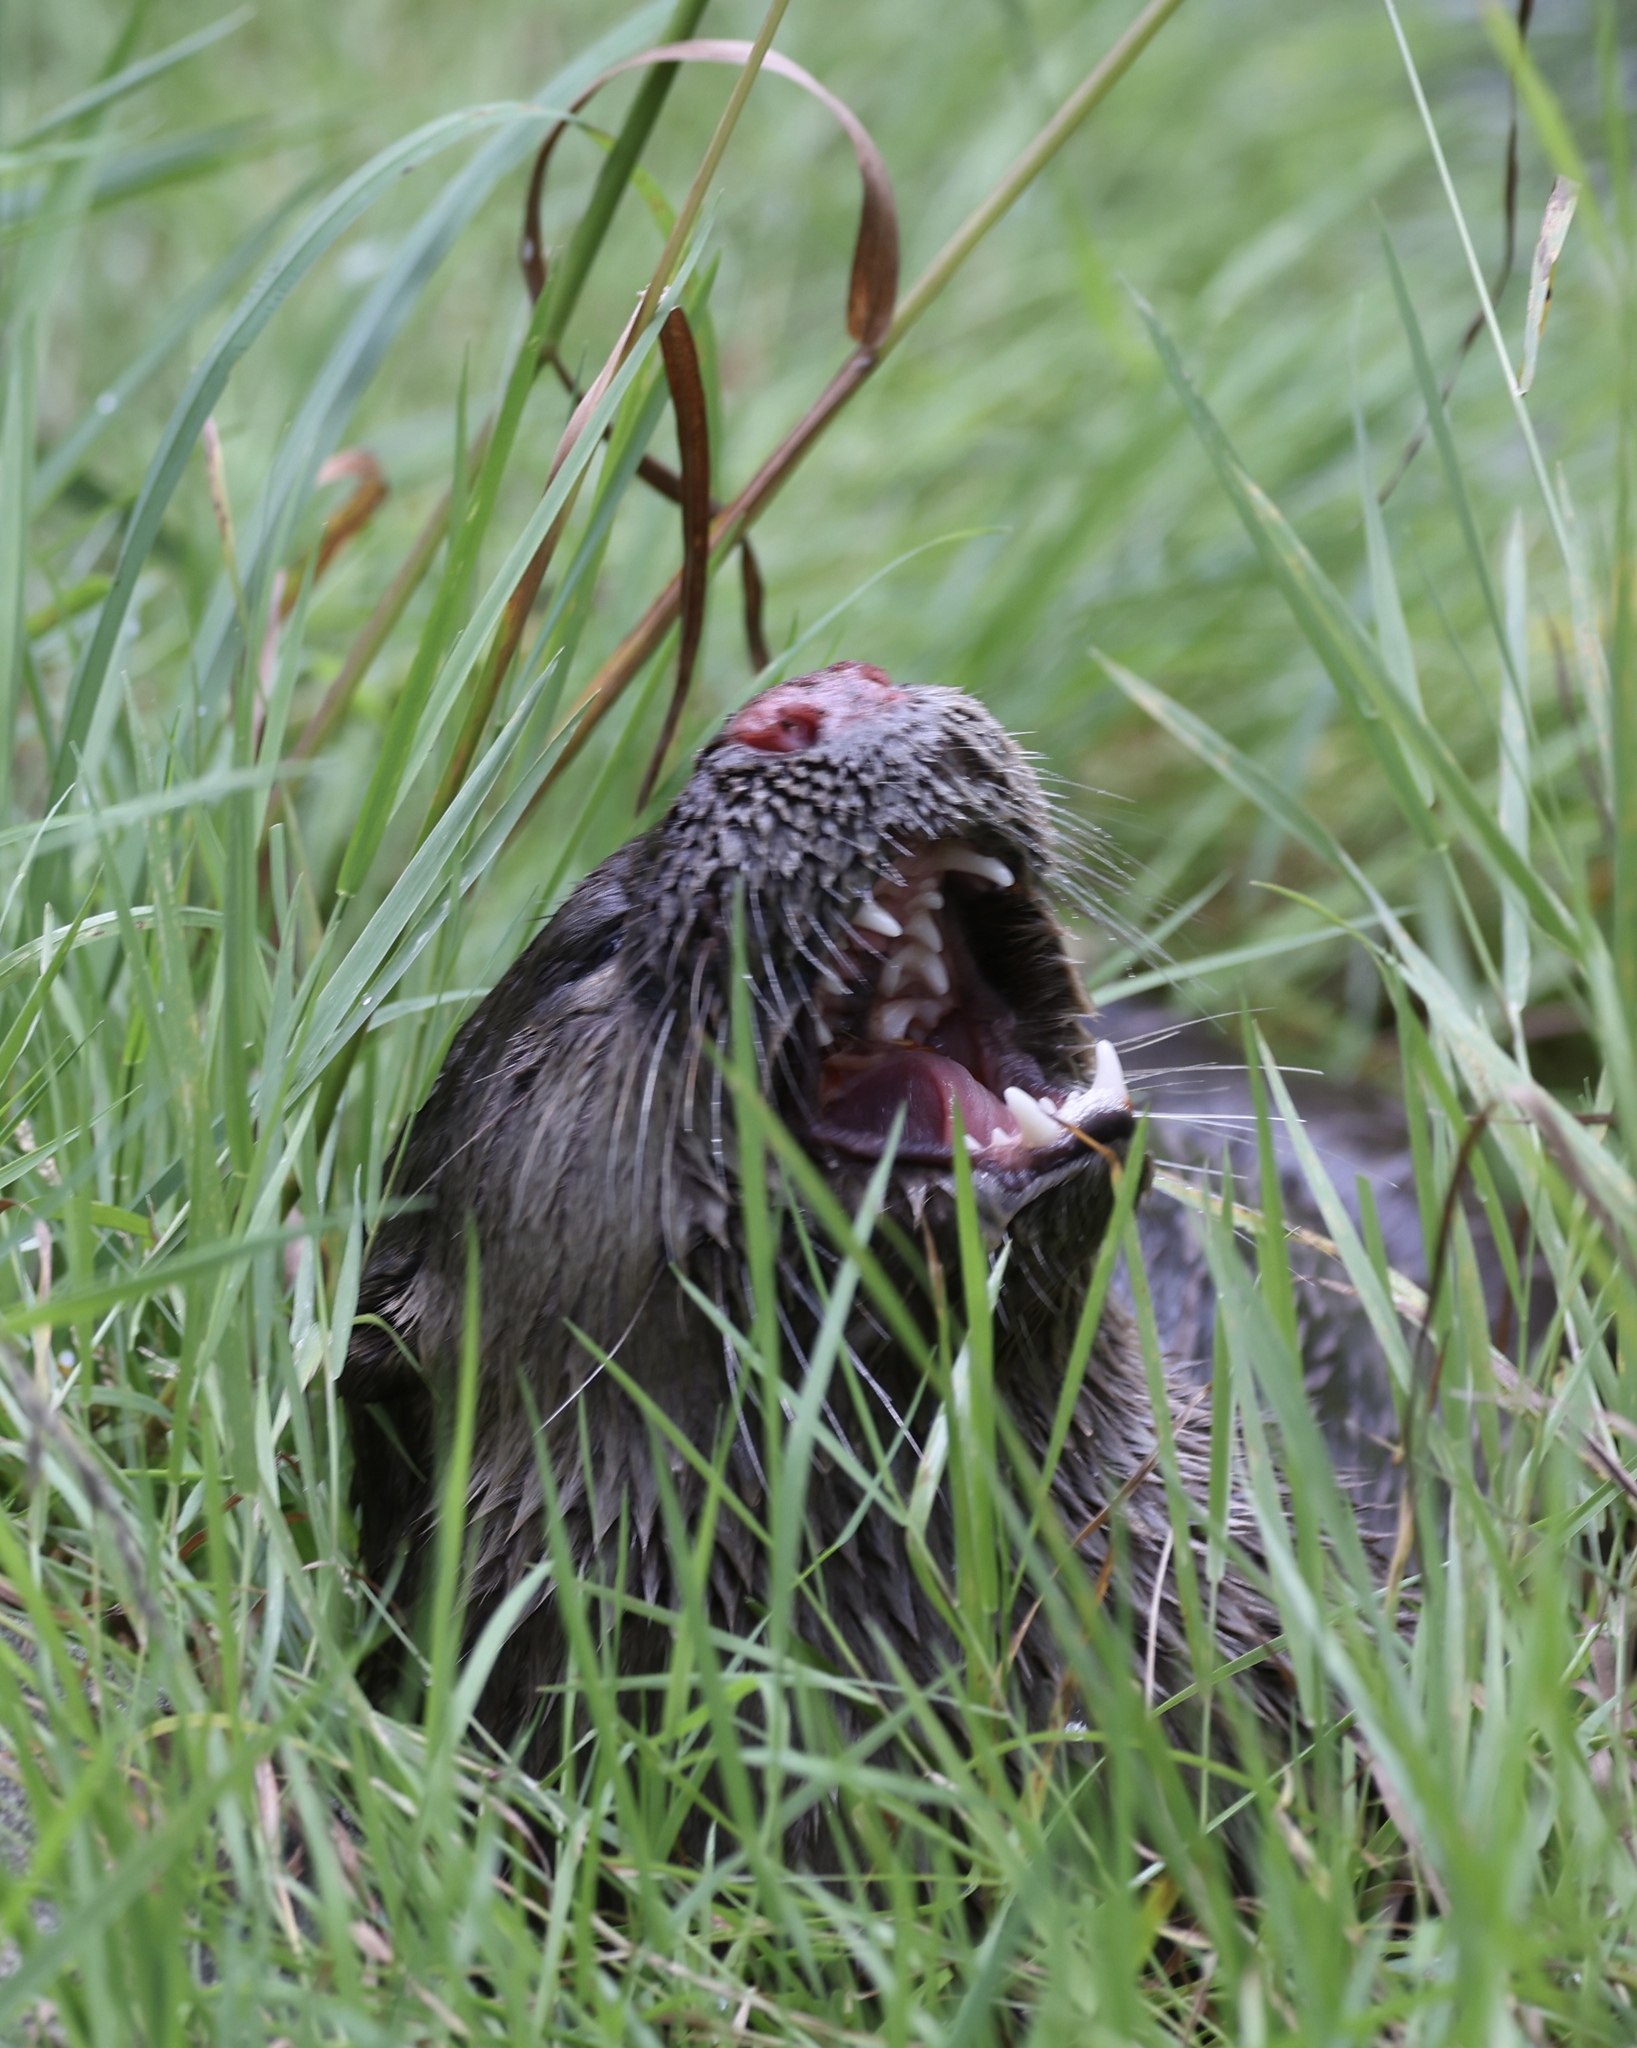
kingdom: Animalia
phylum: Chordata
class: Mammalia
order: Carnivora
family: Mustelidae
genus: Lontra
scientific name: Lontra canadensis
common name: North american river otter
